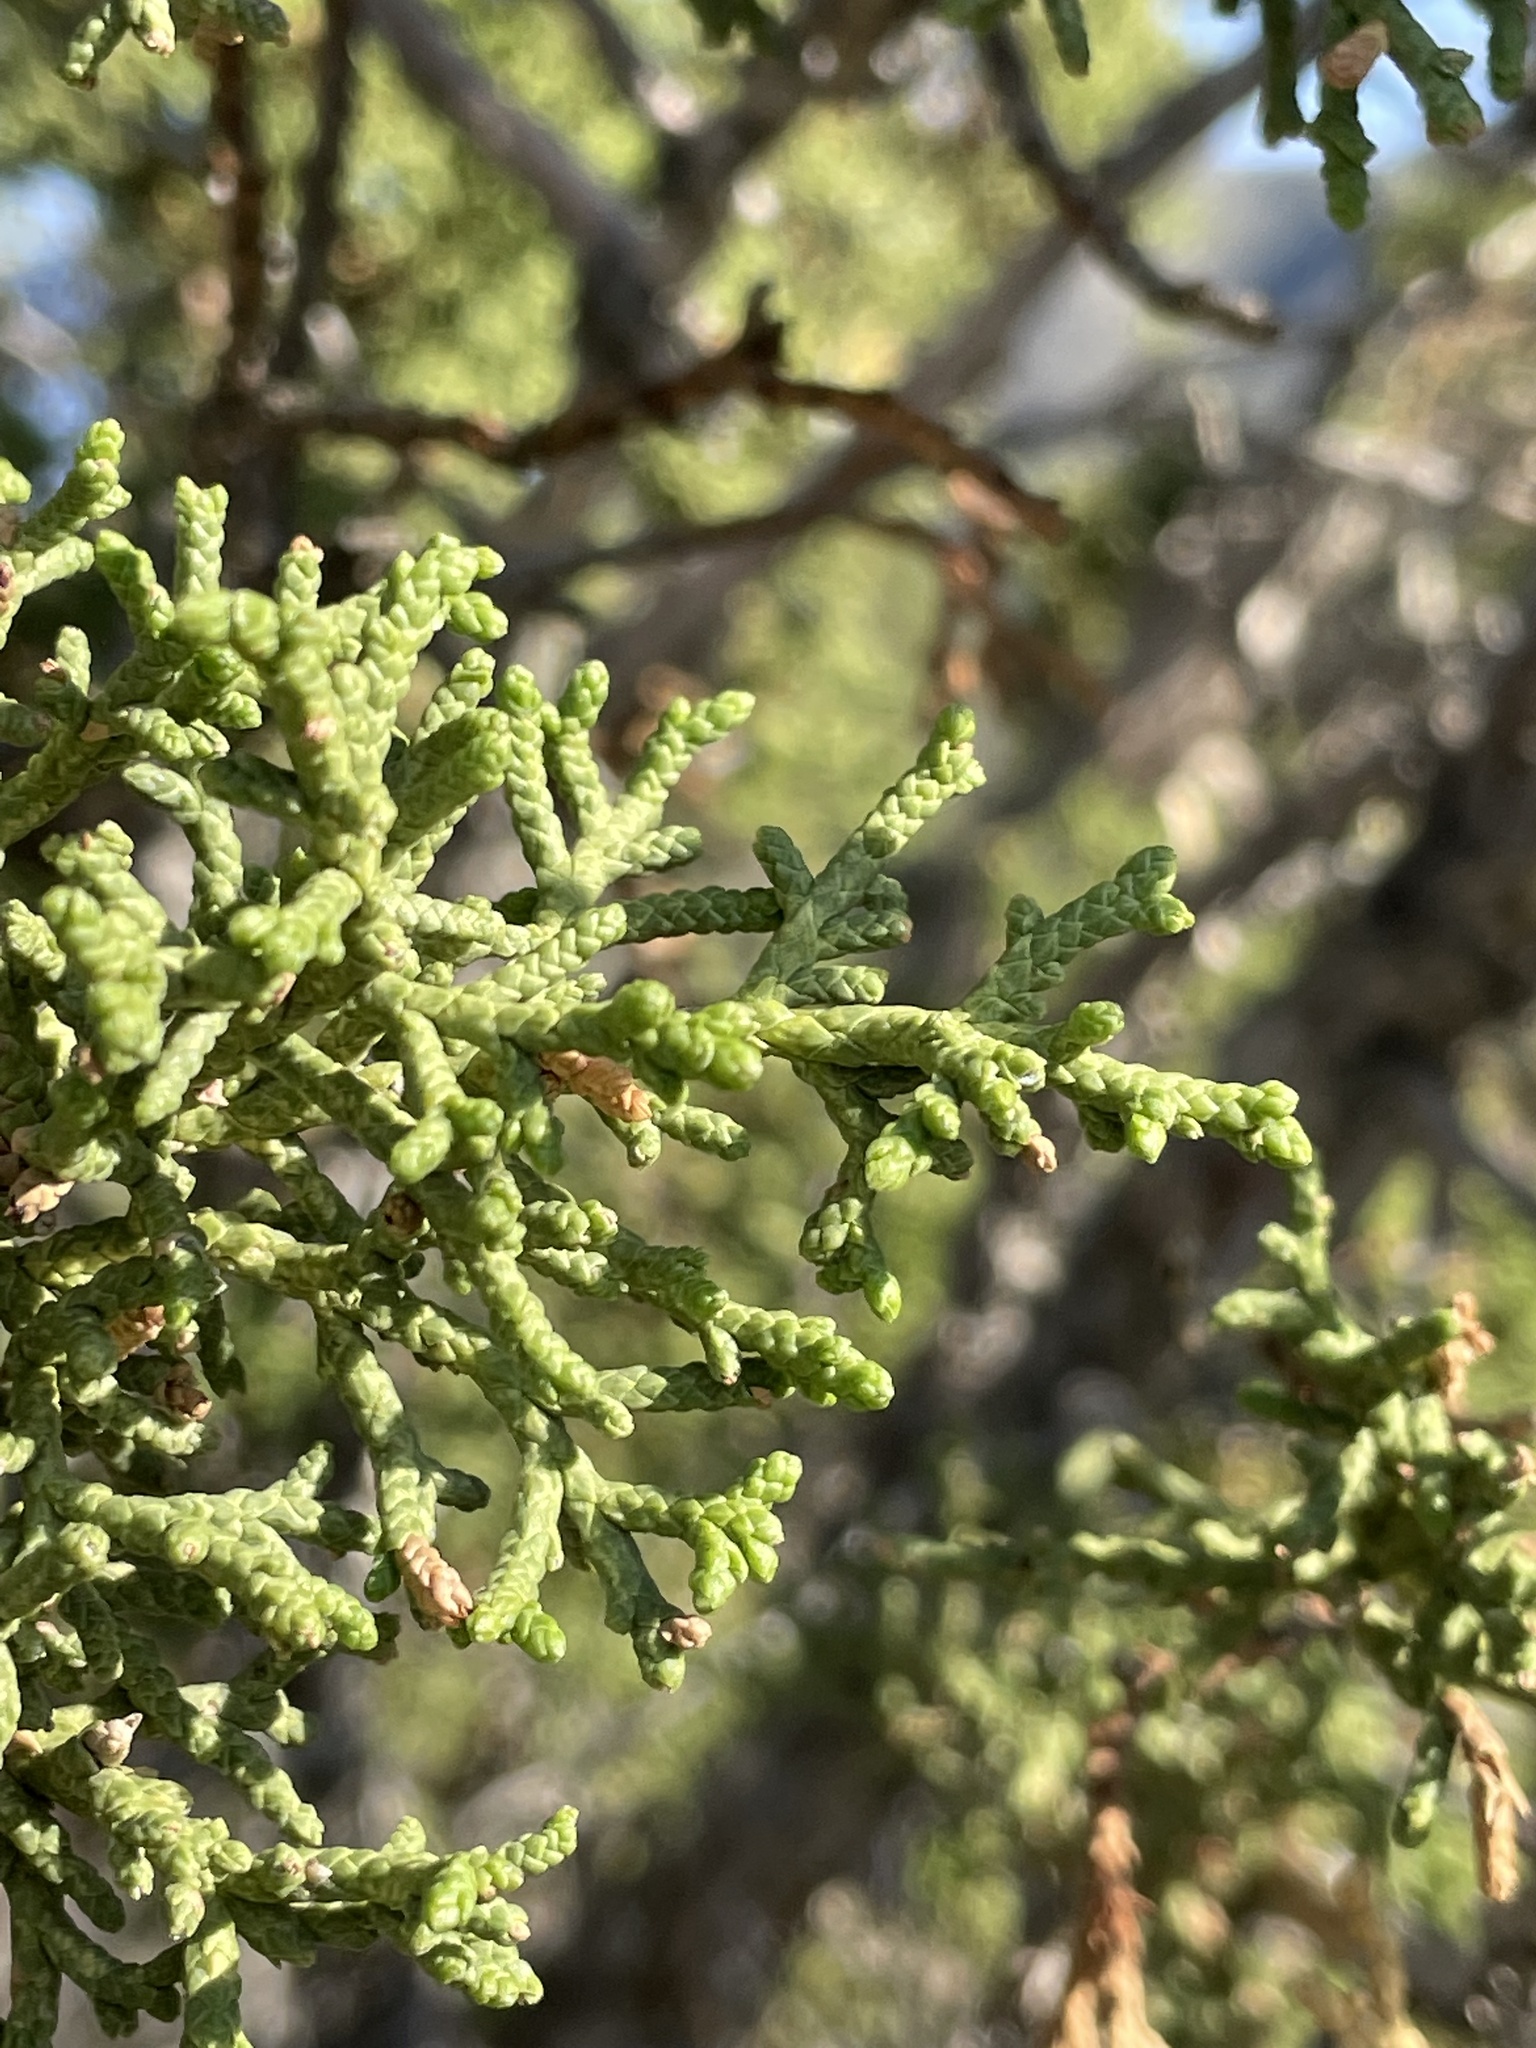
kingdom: Plantae
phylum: Tracheophyta
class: Pinopsida
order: Pinales
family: Cupressaceae
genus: Juniperus
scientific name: Juniperus osteosperma
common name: Utah juniper
